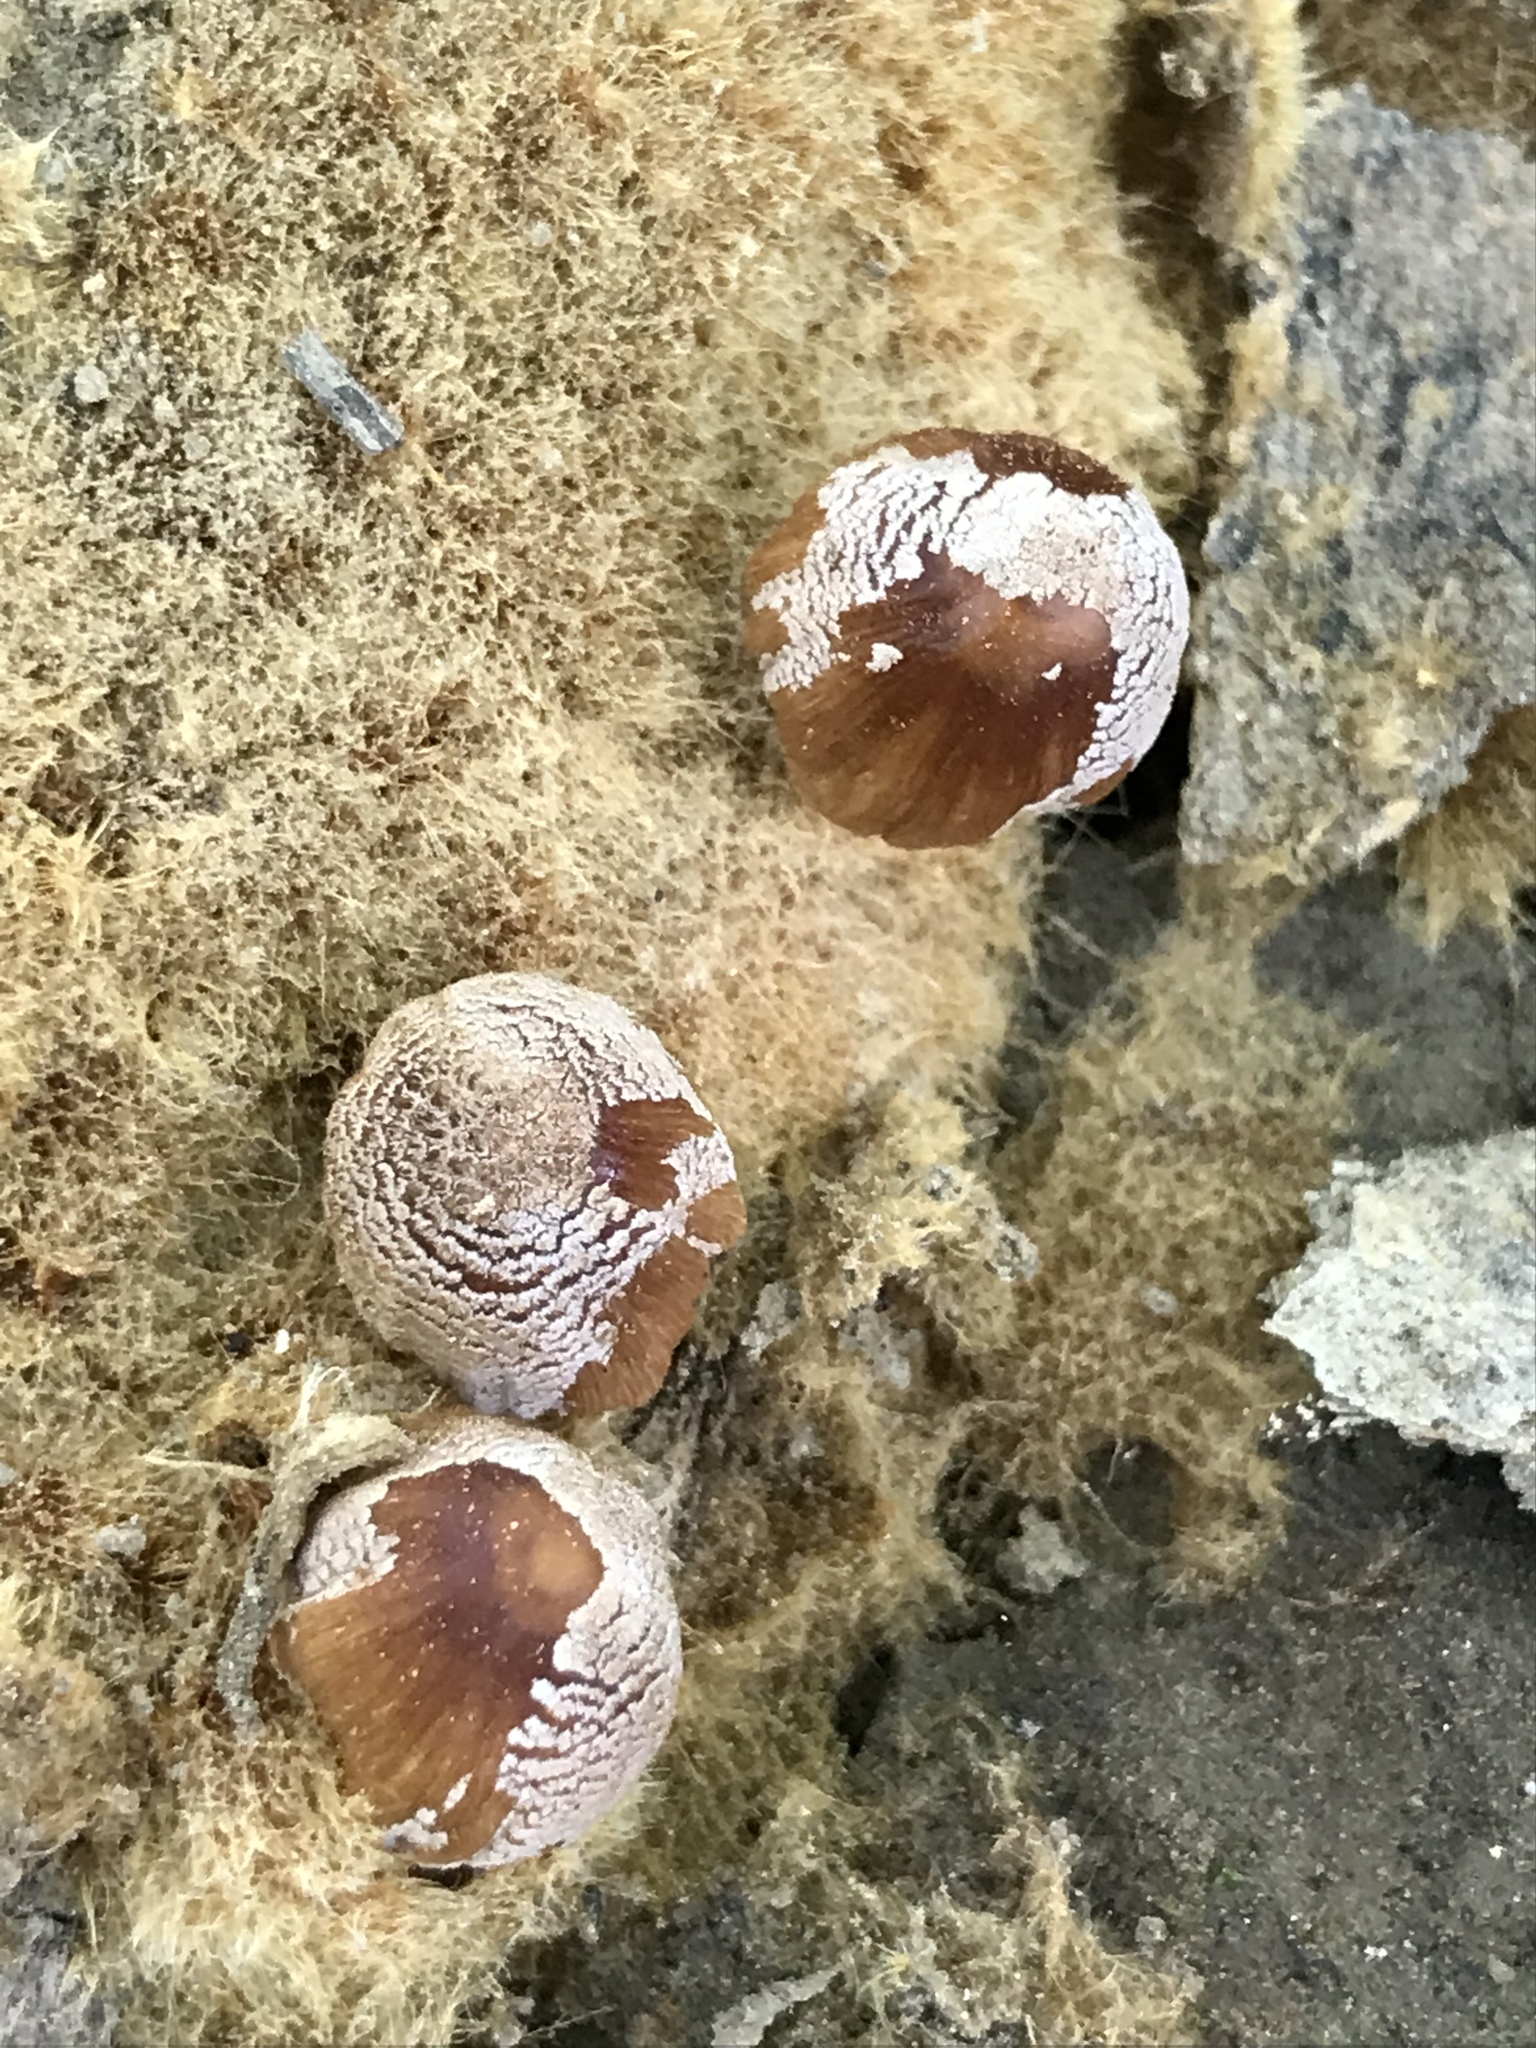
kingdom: Fungi
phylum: Basidiomycota
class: Agaricomycetes
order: Agaricales
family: Psathyrellaceae
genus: Coprinellus
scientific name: Coprinellus radians
